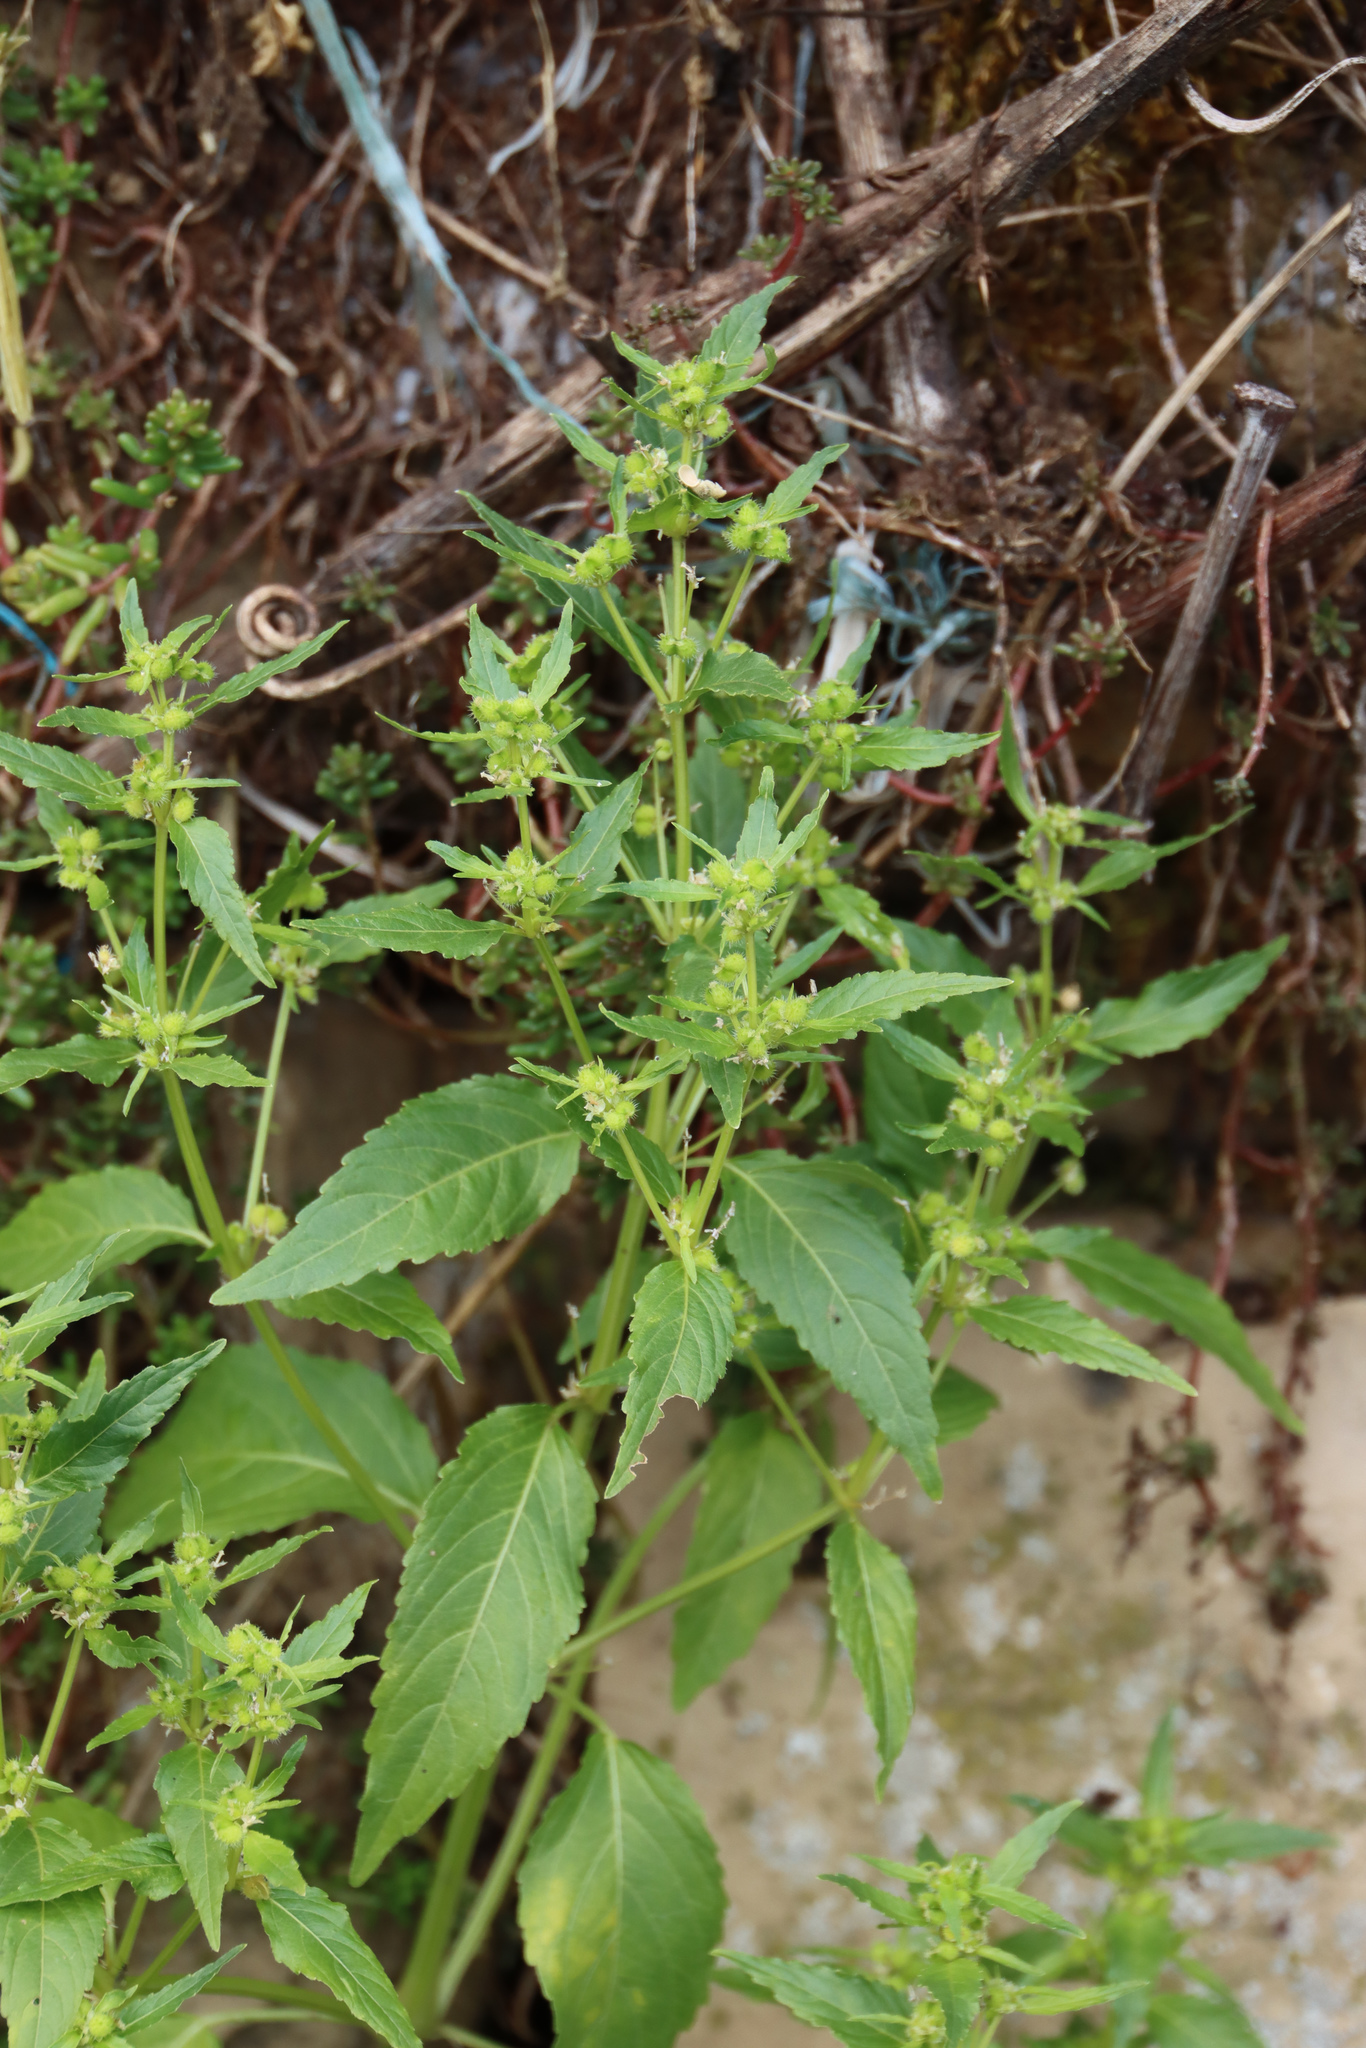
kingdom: Plantae
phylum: Tracheophyta
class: Magnoliopsida
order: Malpighiales
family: Euphorbiaceae
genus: Mercurialis
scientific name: Mercurialis annua
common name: Annual mercury
